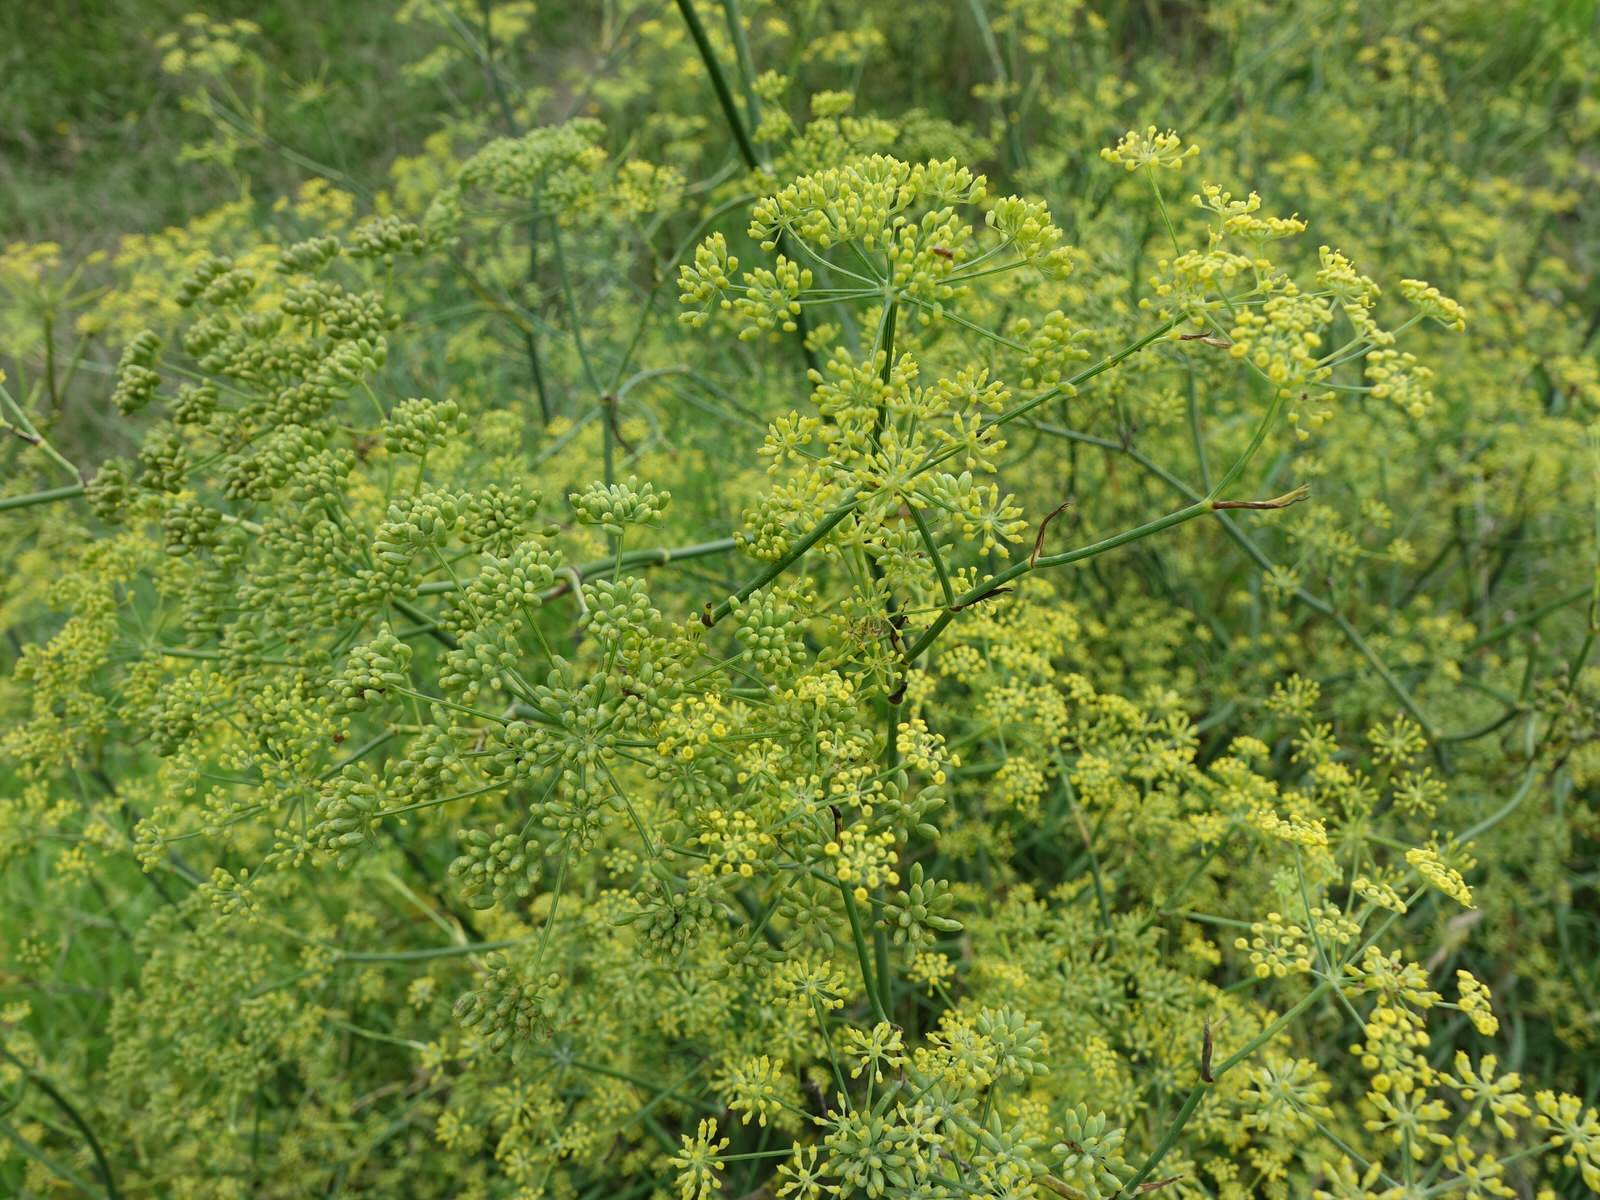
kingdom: Plantae
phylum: Tracheophyta
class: Magnoliopsida
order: Apiales
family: Apiaceae
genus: Foeniculum
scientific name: Foeniculum vulgare
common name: Fennel
